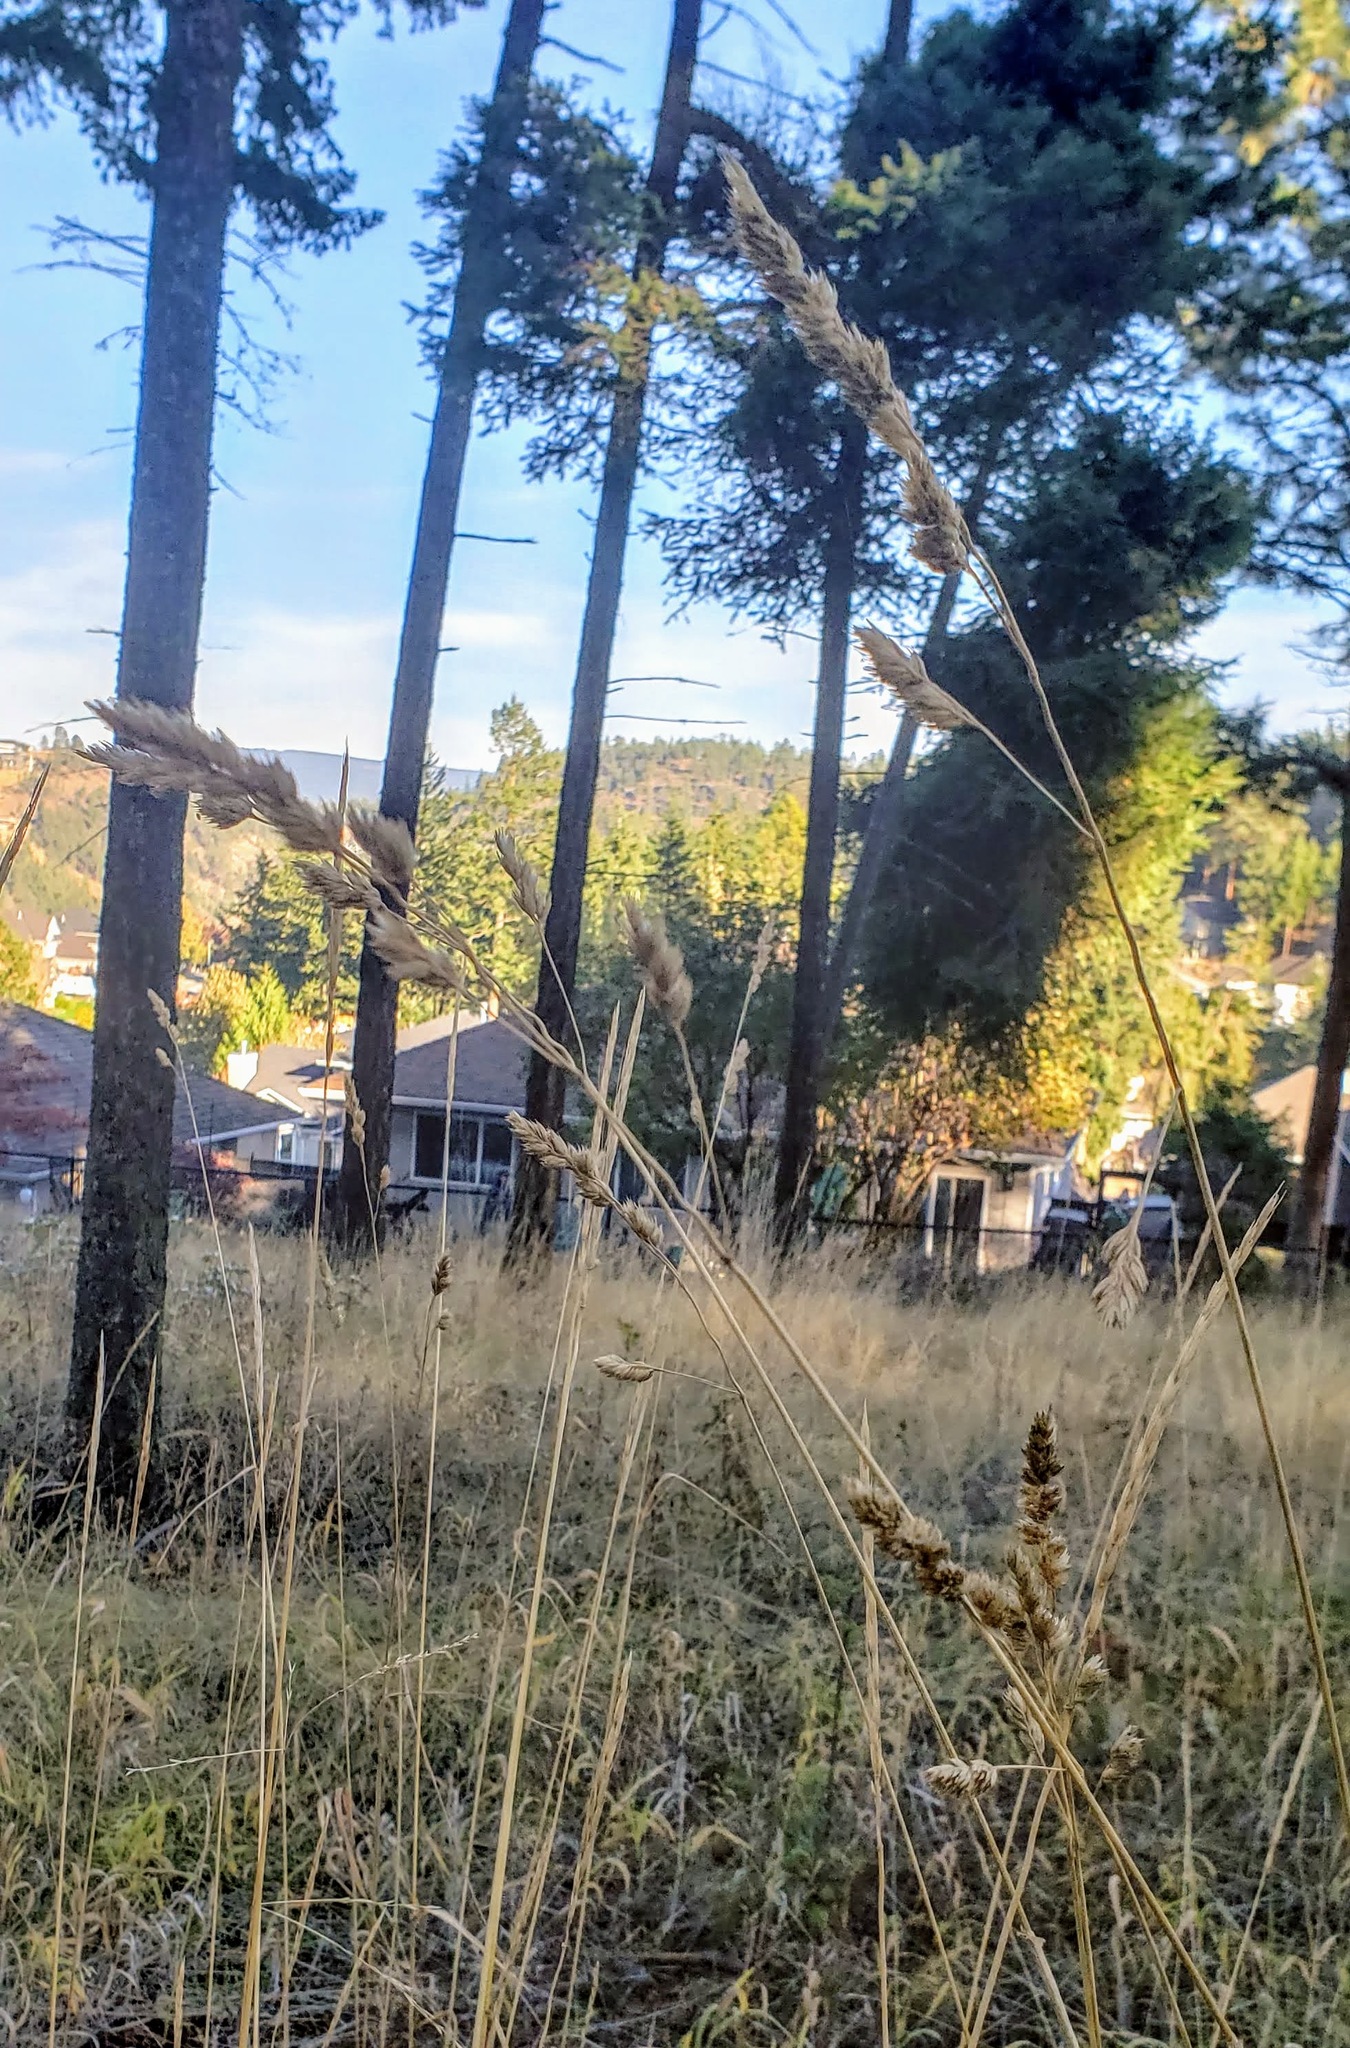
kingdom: Plantae
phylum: Tracheophyta
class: Liliopsida
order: Poales
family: Poaceae
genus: Dactylis
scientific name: Dactylis glomerata
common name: Orchardgrass
